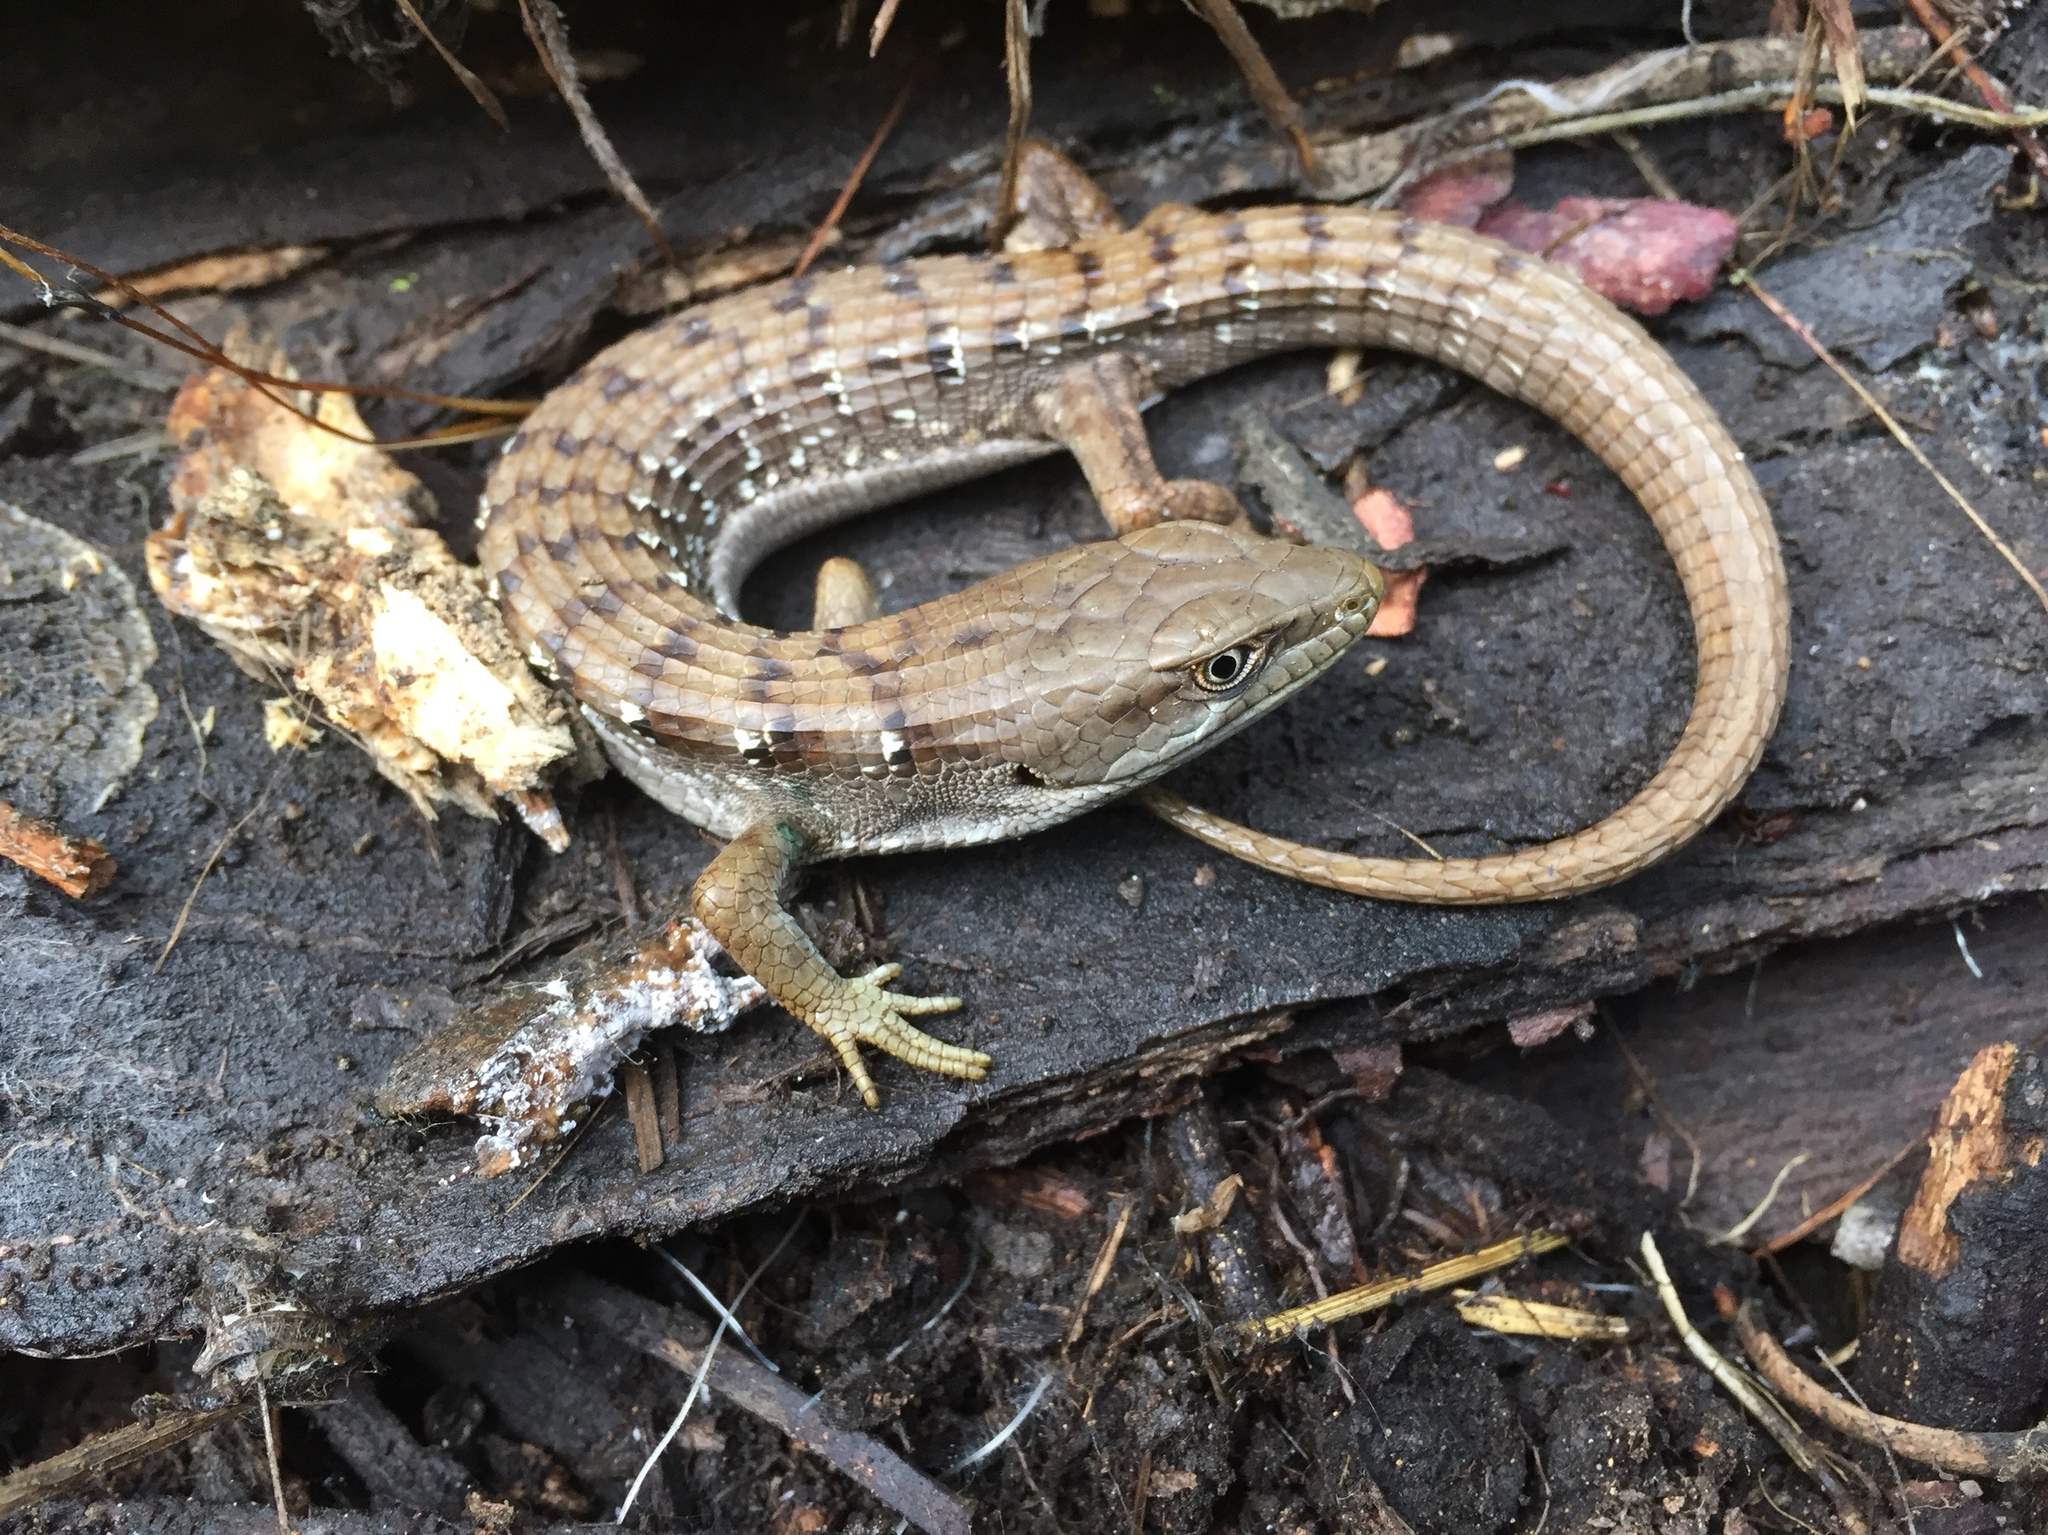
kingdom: Animalia
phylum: Chordata
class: Squamata
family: Anguidae
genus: Elgaria
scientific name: Elgaria multicarinata
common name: Southern alligator lizard
